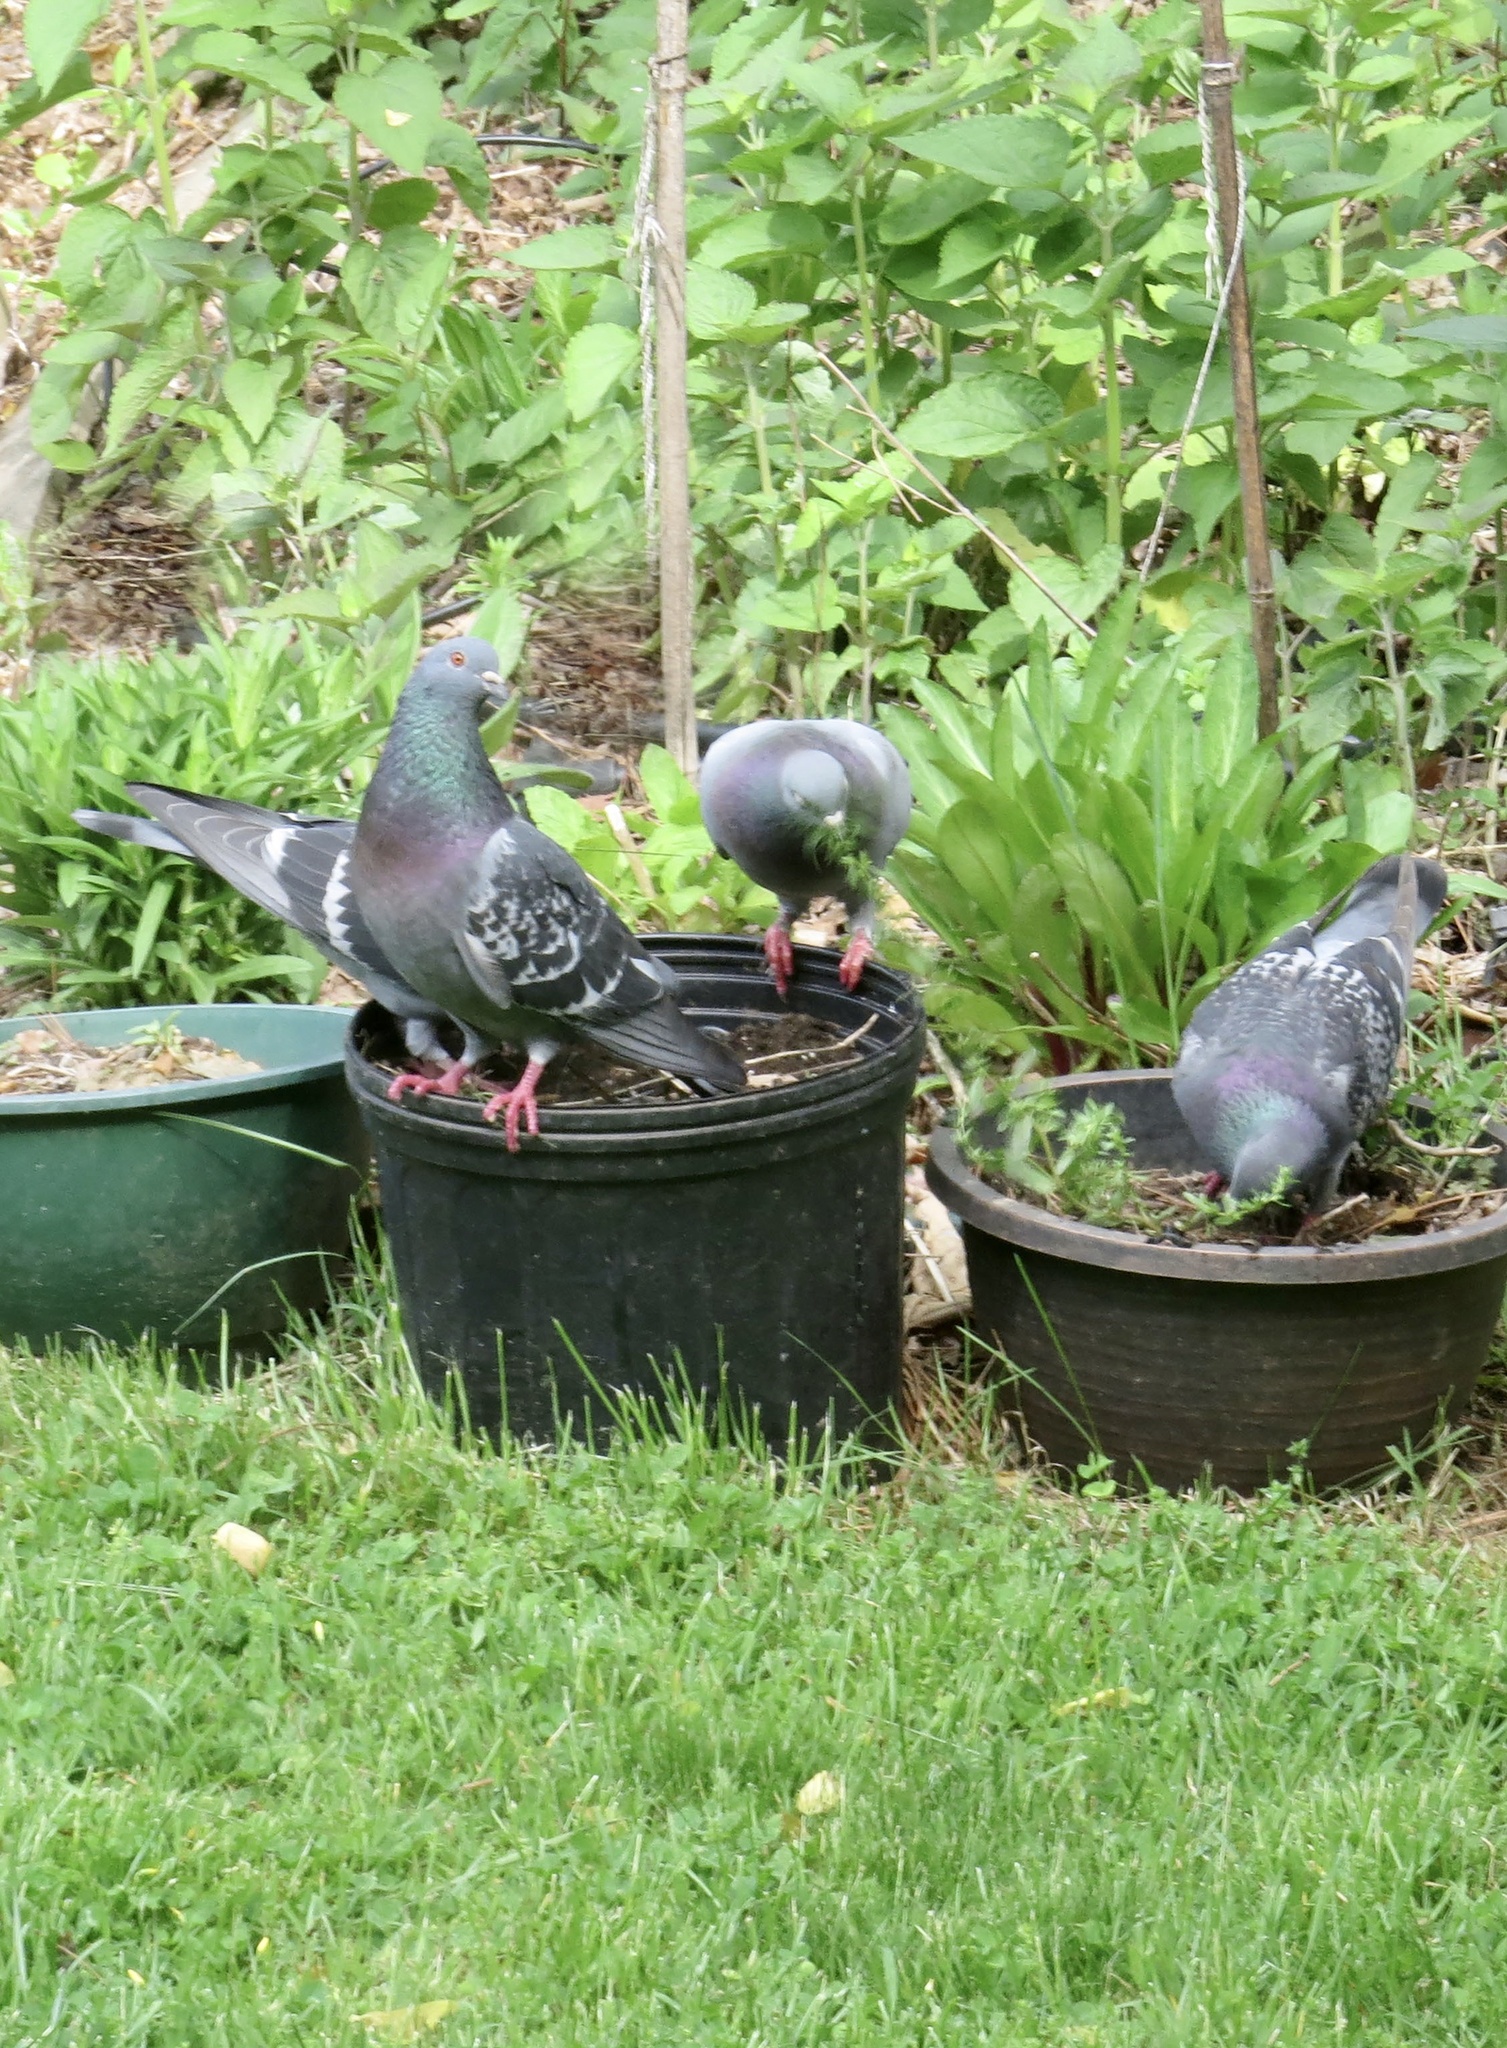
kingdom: Animalia
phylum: Chordata
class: Aves
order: Columbiformes
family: Columbidae
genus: Columba
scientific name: Columba livia
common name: Rock pigeon
